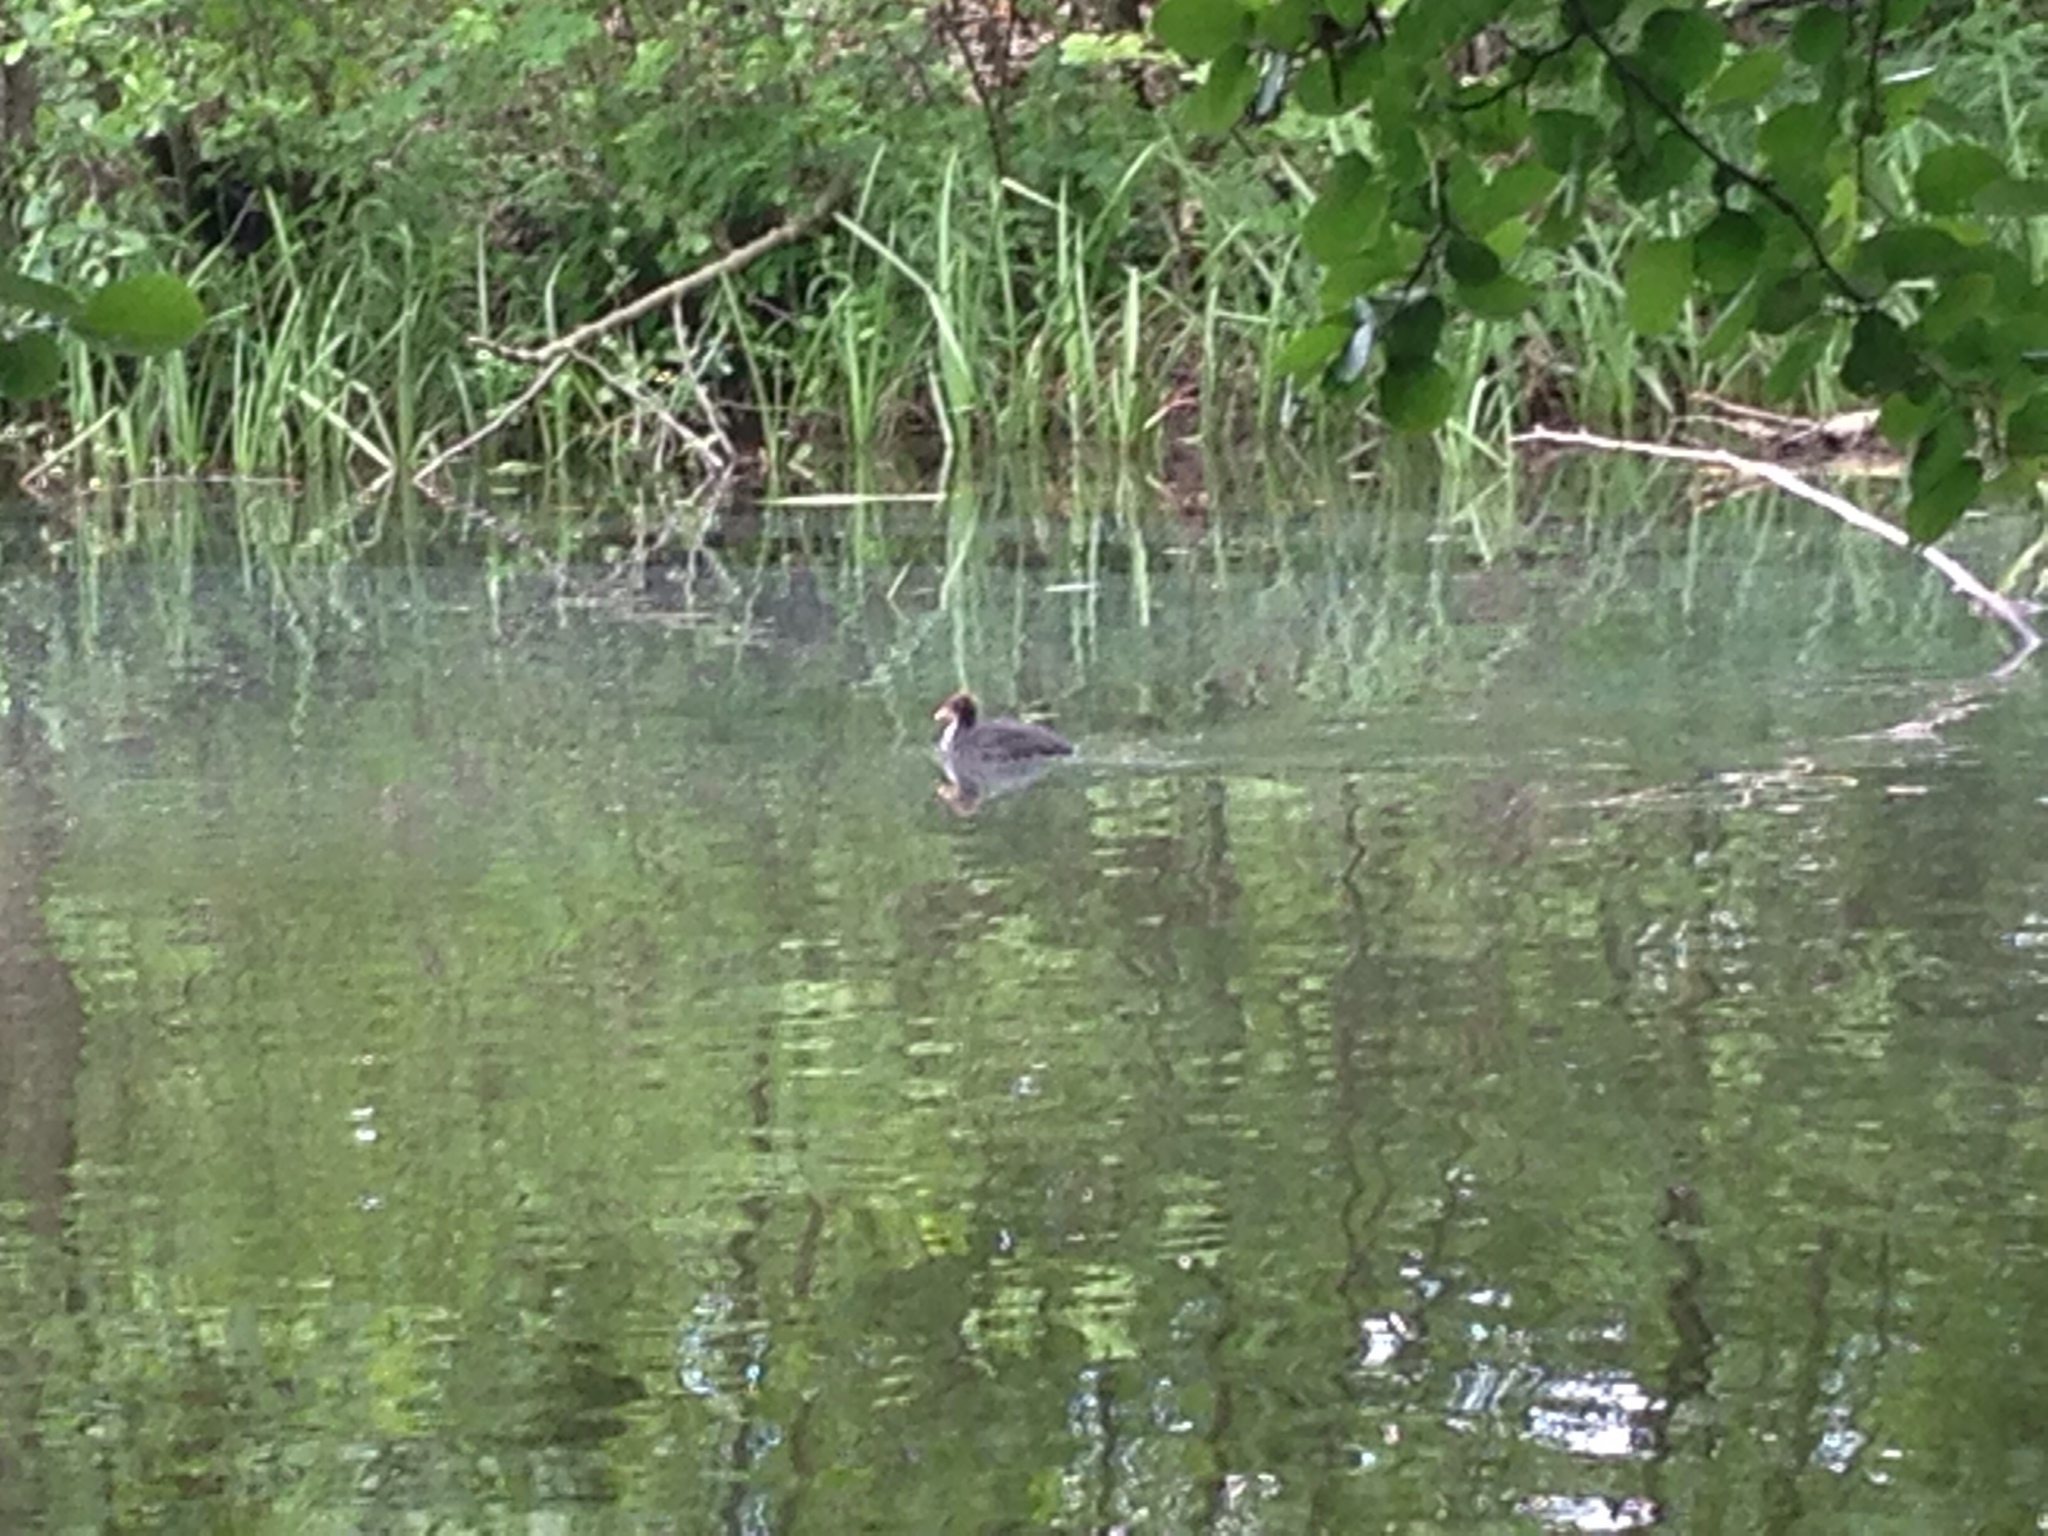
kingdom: Animalia
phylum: Chordata
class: Aves
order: Gruiformes
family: Rallidae
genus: Fulica
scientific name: Fulica atra
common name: Eurasian coot
